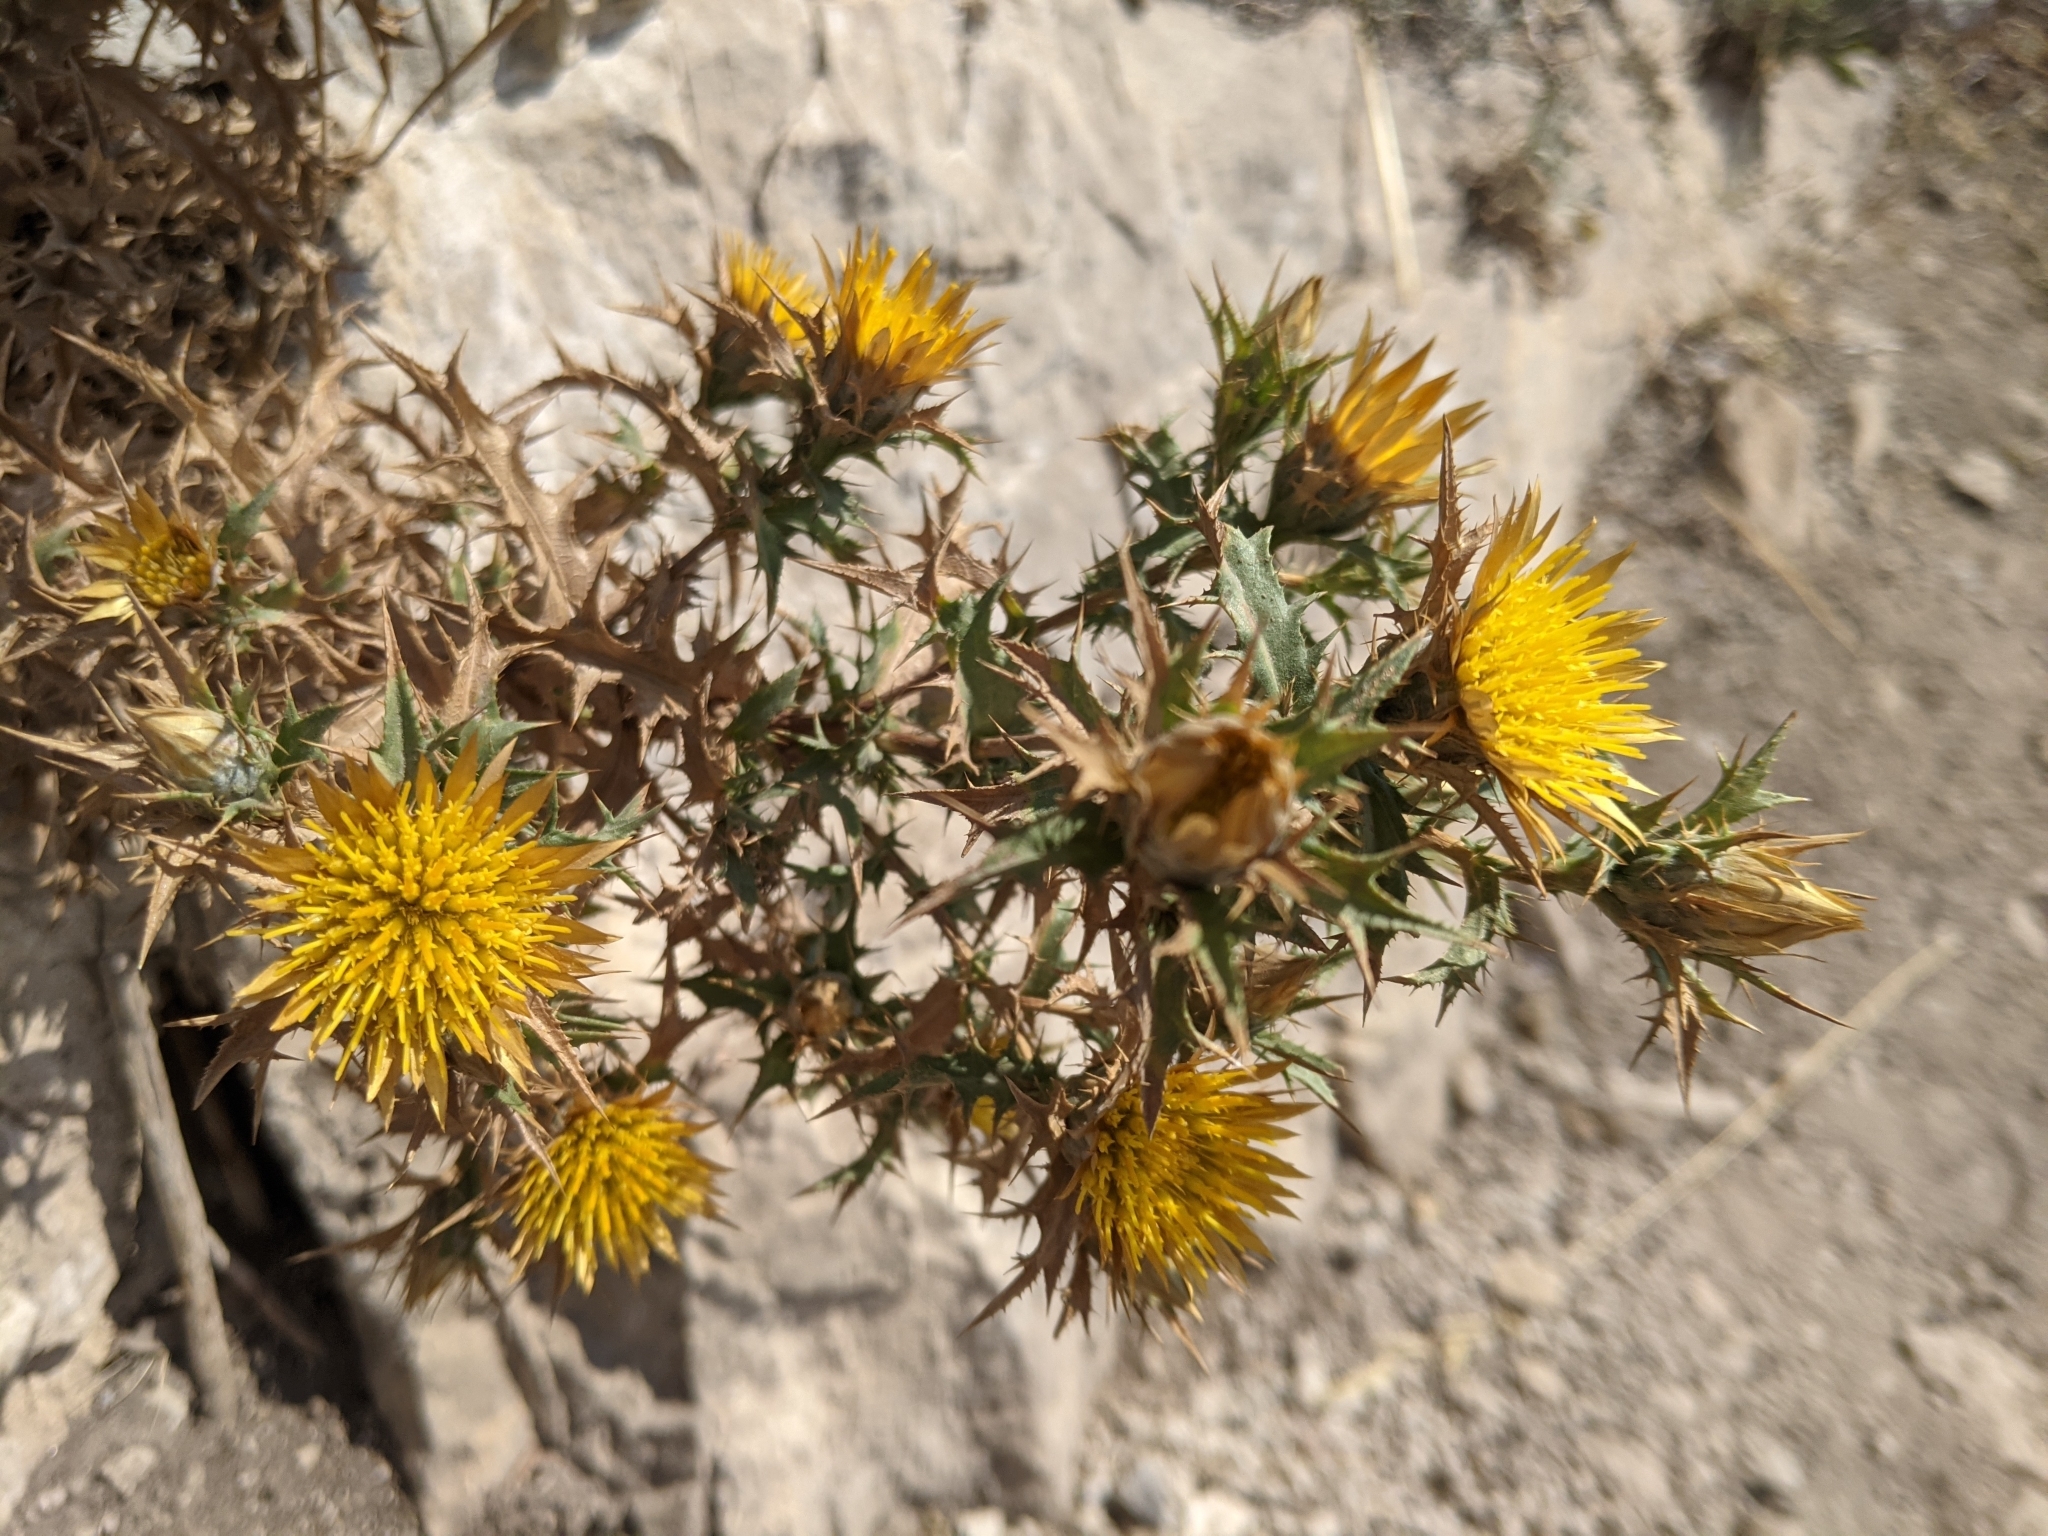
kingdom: Plantae
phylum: Tracheophyta
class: Magnoliopsida
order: Asterales
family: Asteraceae
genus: Carlina
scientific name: Carlina corymbosa
